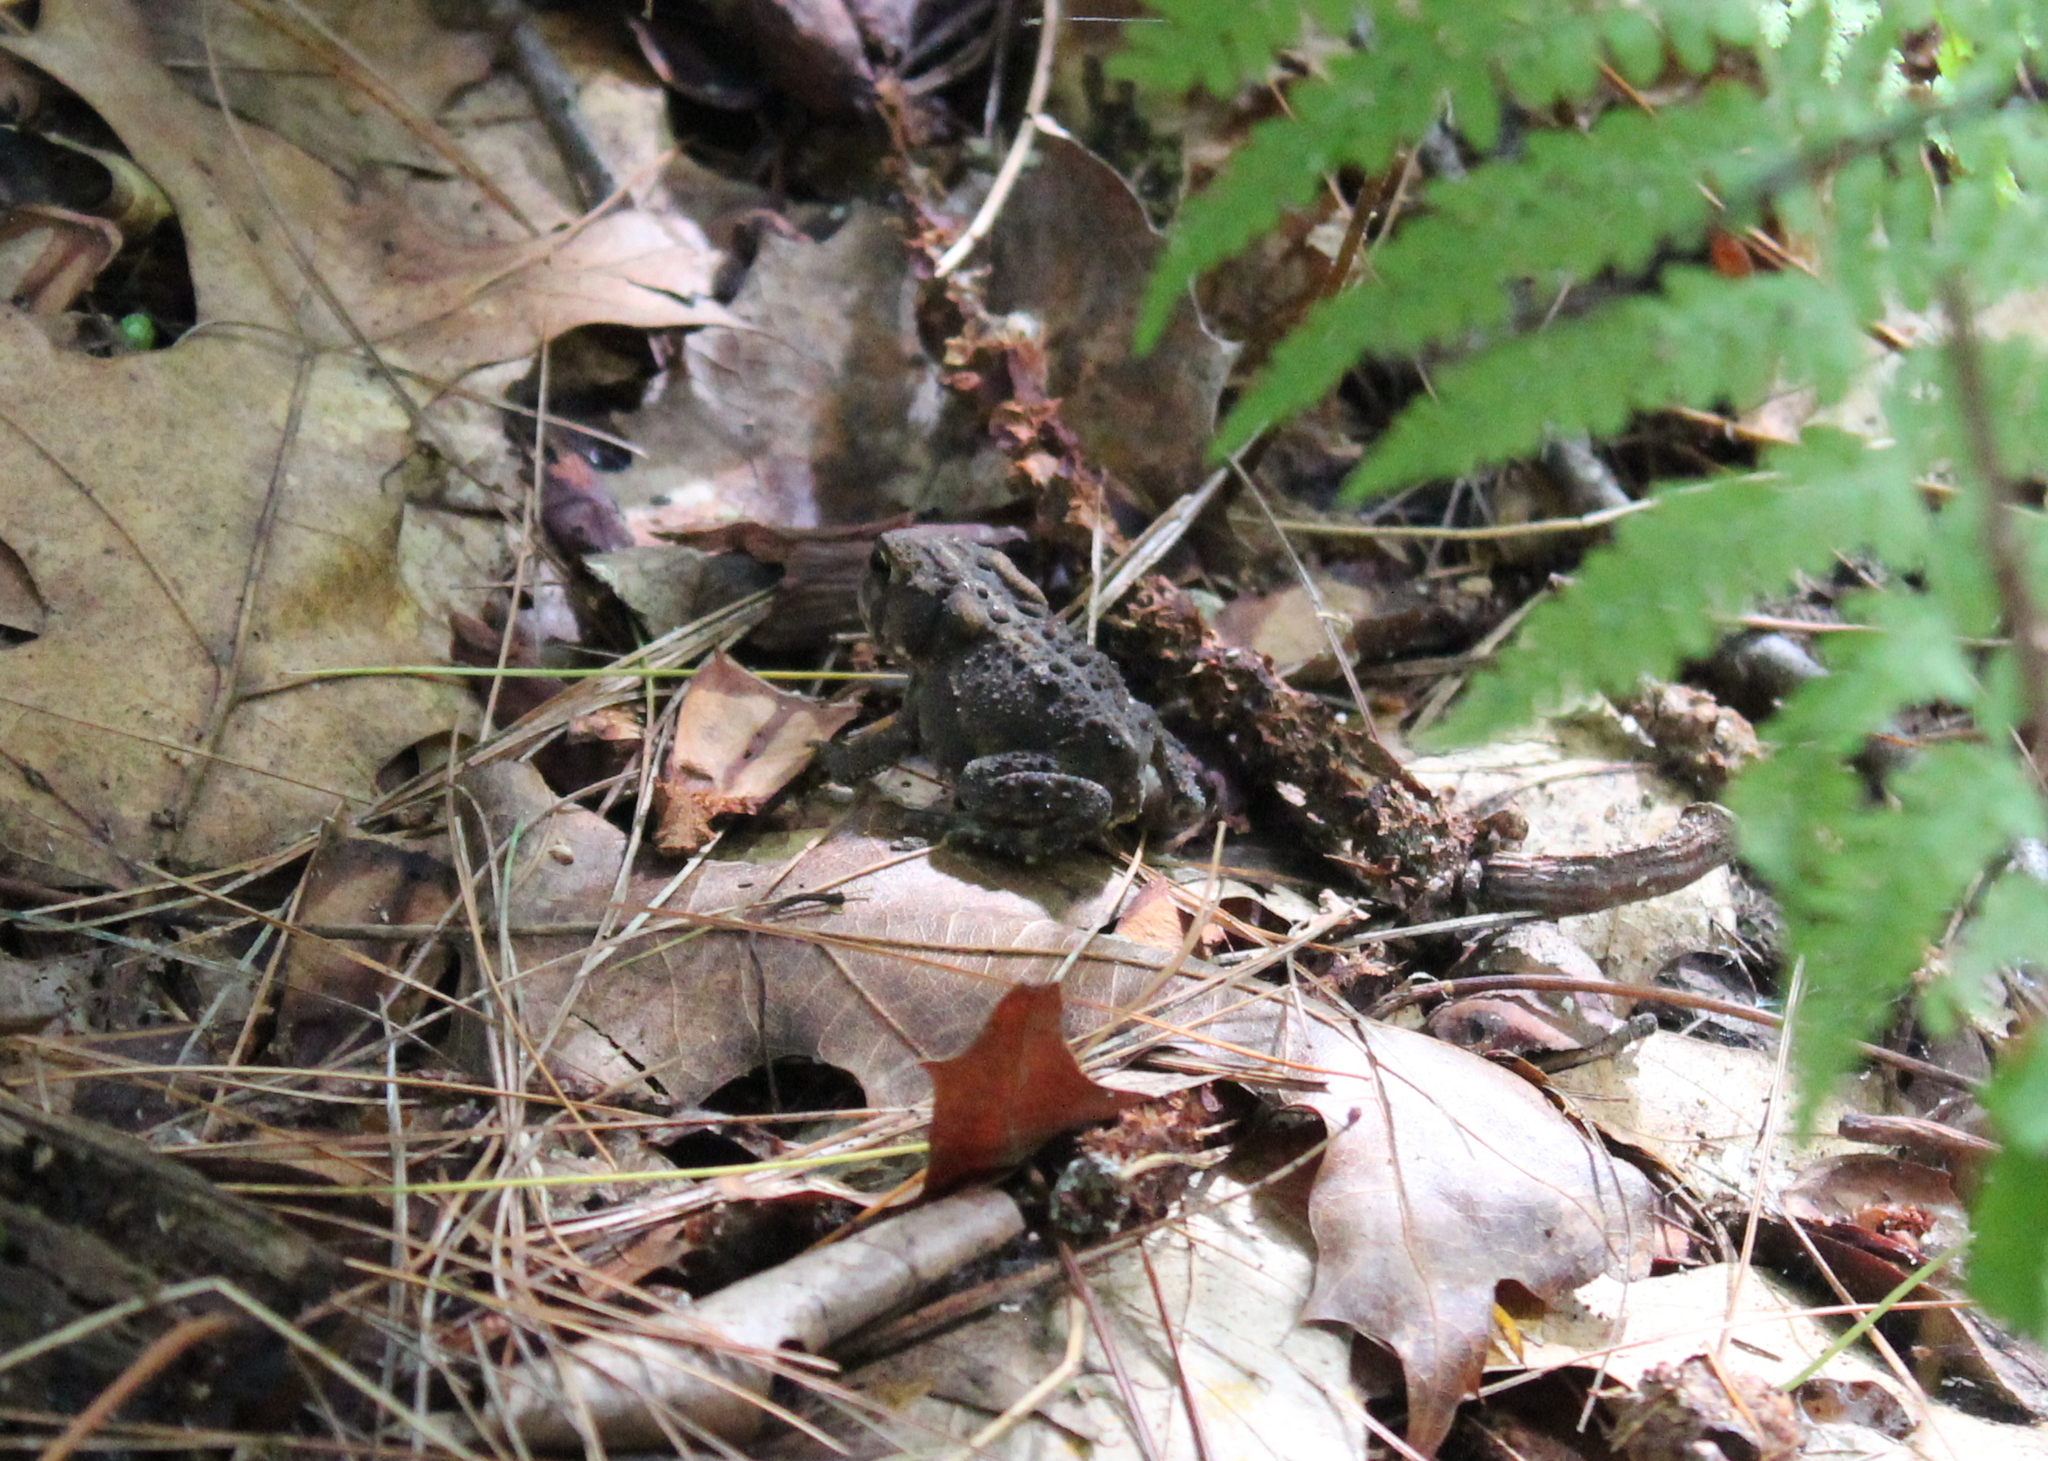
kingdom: Animalia
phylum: Chordata
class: Amphibia
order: Anura
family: Bufonidae
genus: Anaxyrus
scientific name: Anaxyrus americanus
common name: American toad
